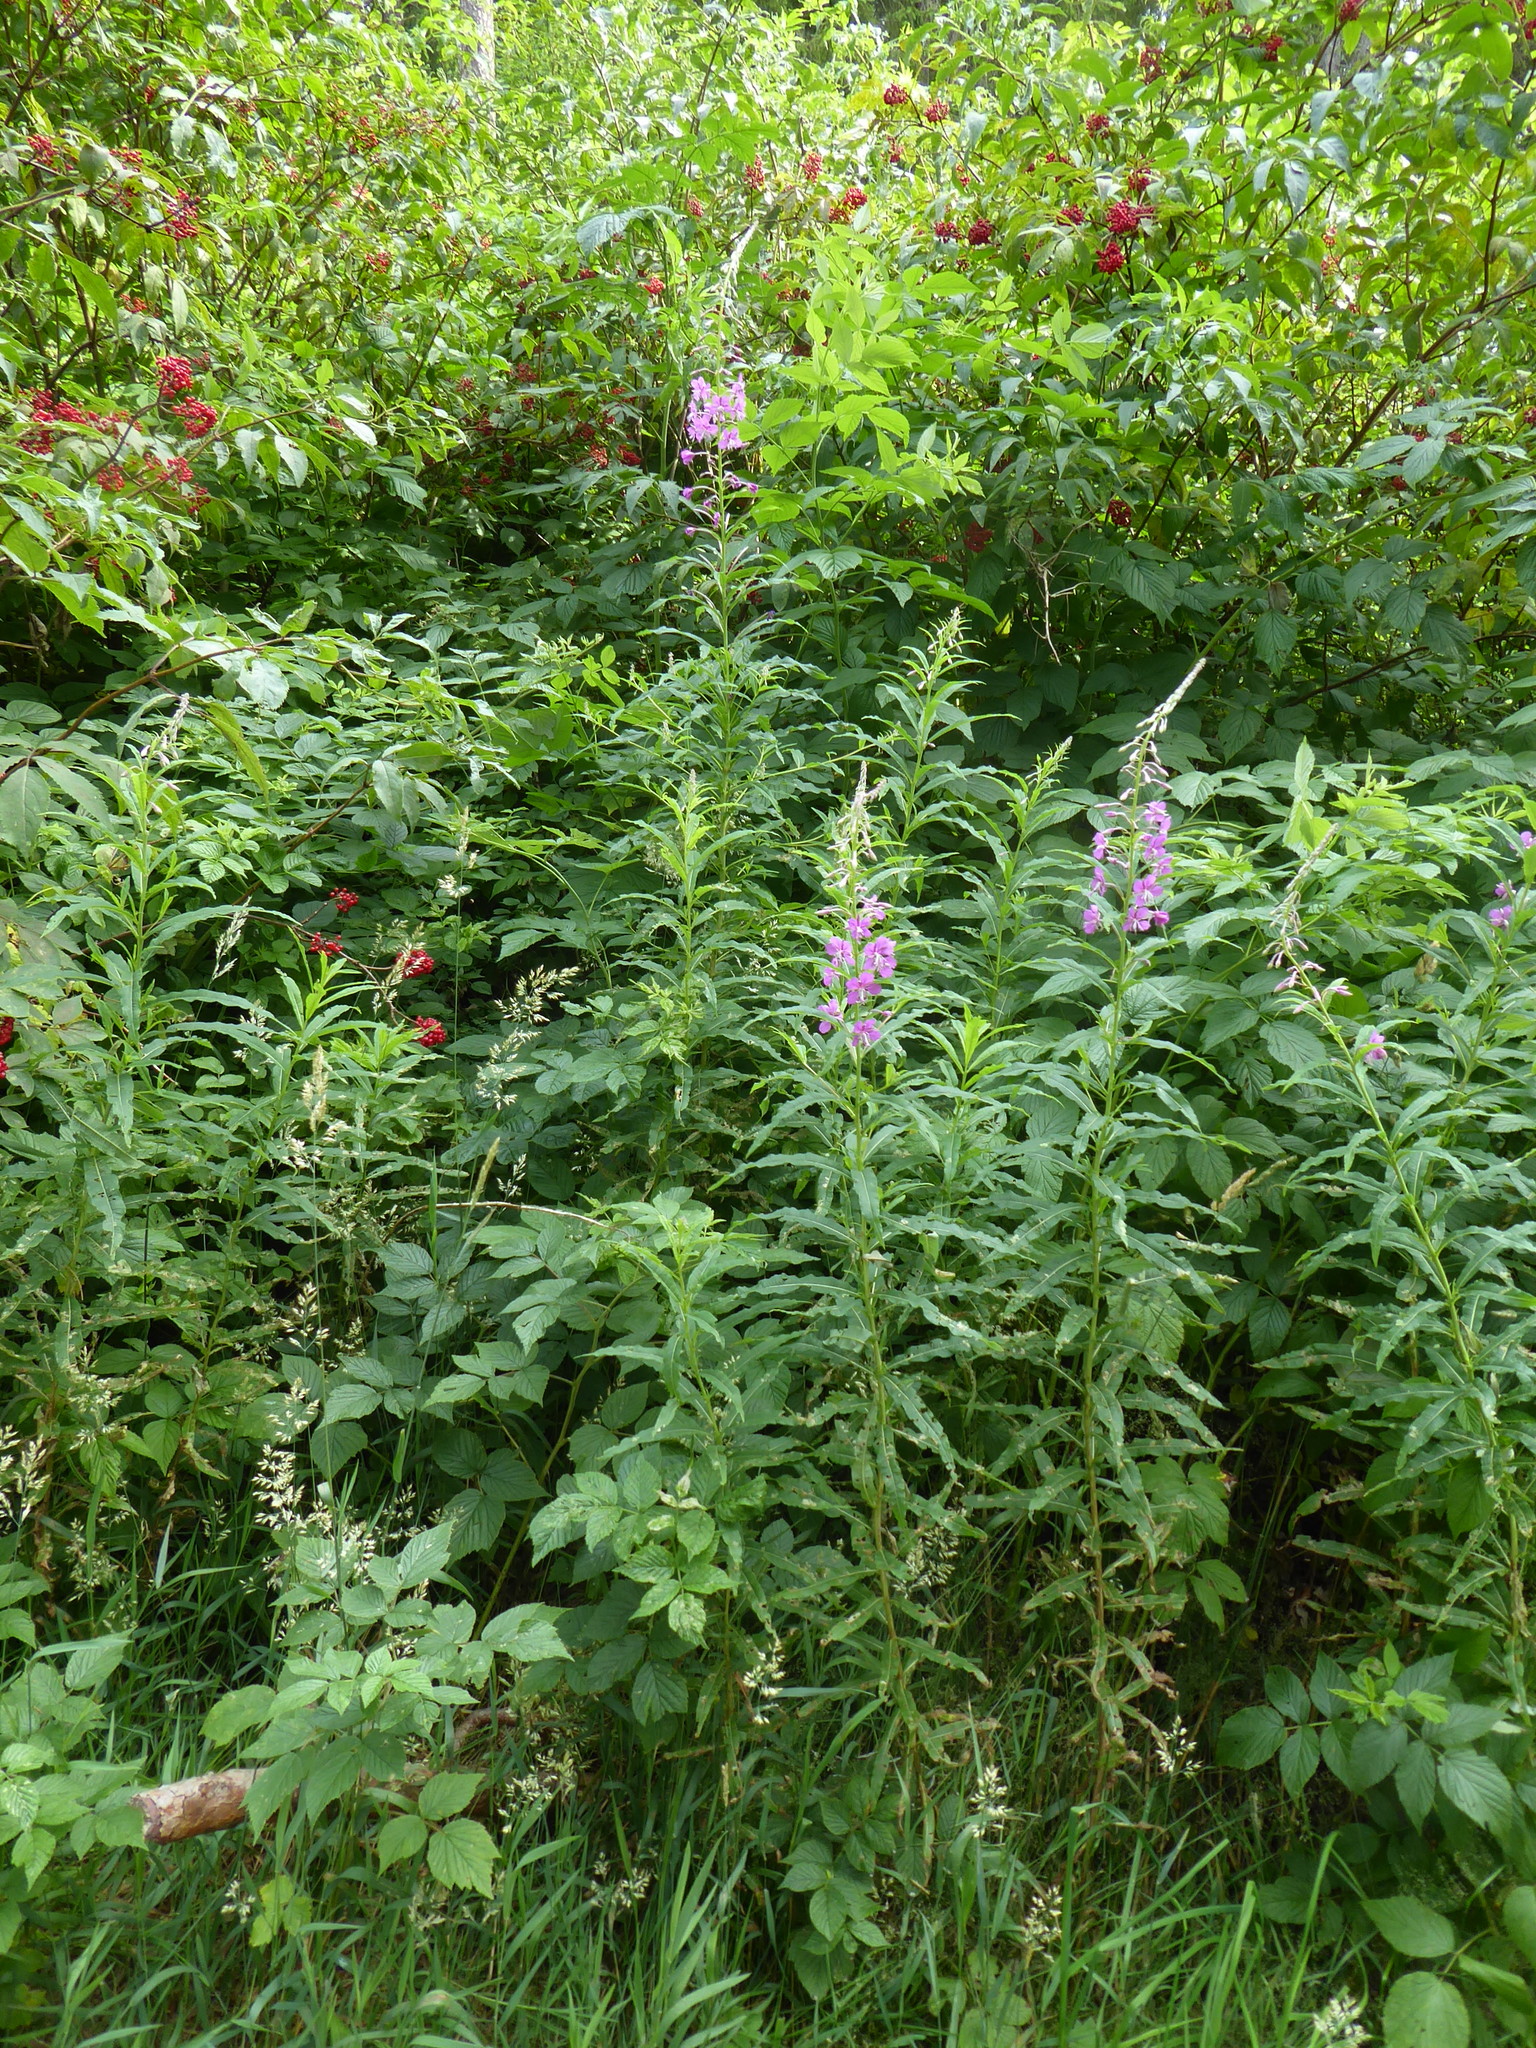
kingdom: Plantae
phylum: Tracheophyta
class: Magnoliopsida
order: Myrtales
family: Onagraceae
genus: Chamaenerion
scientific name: Chamaenerion angustifolium
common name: Fireweed
